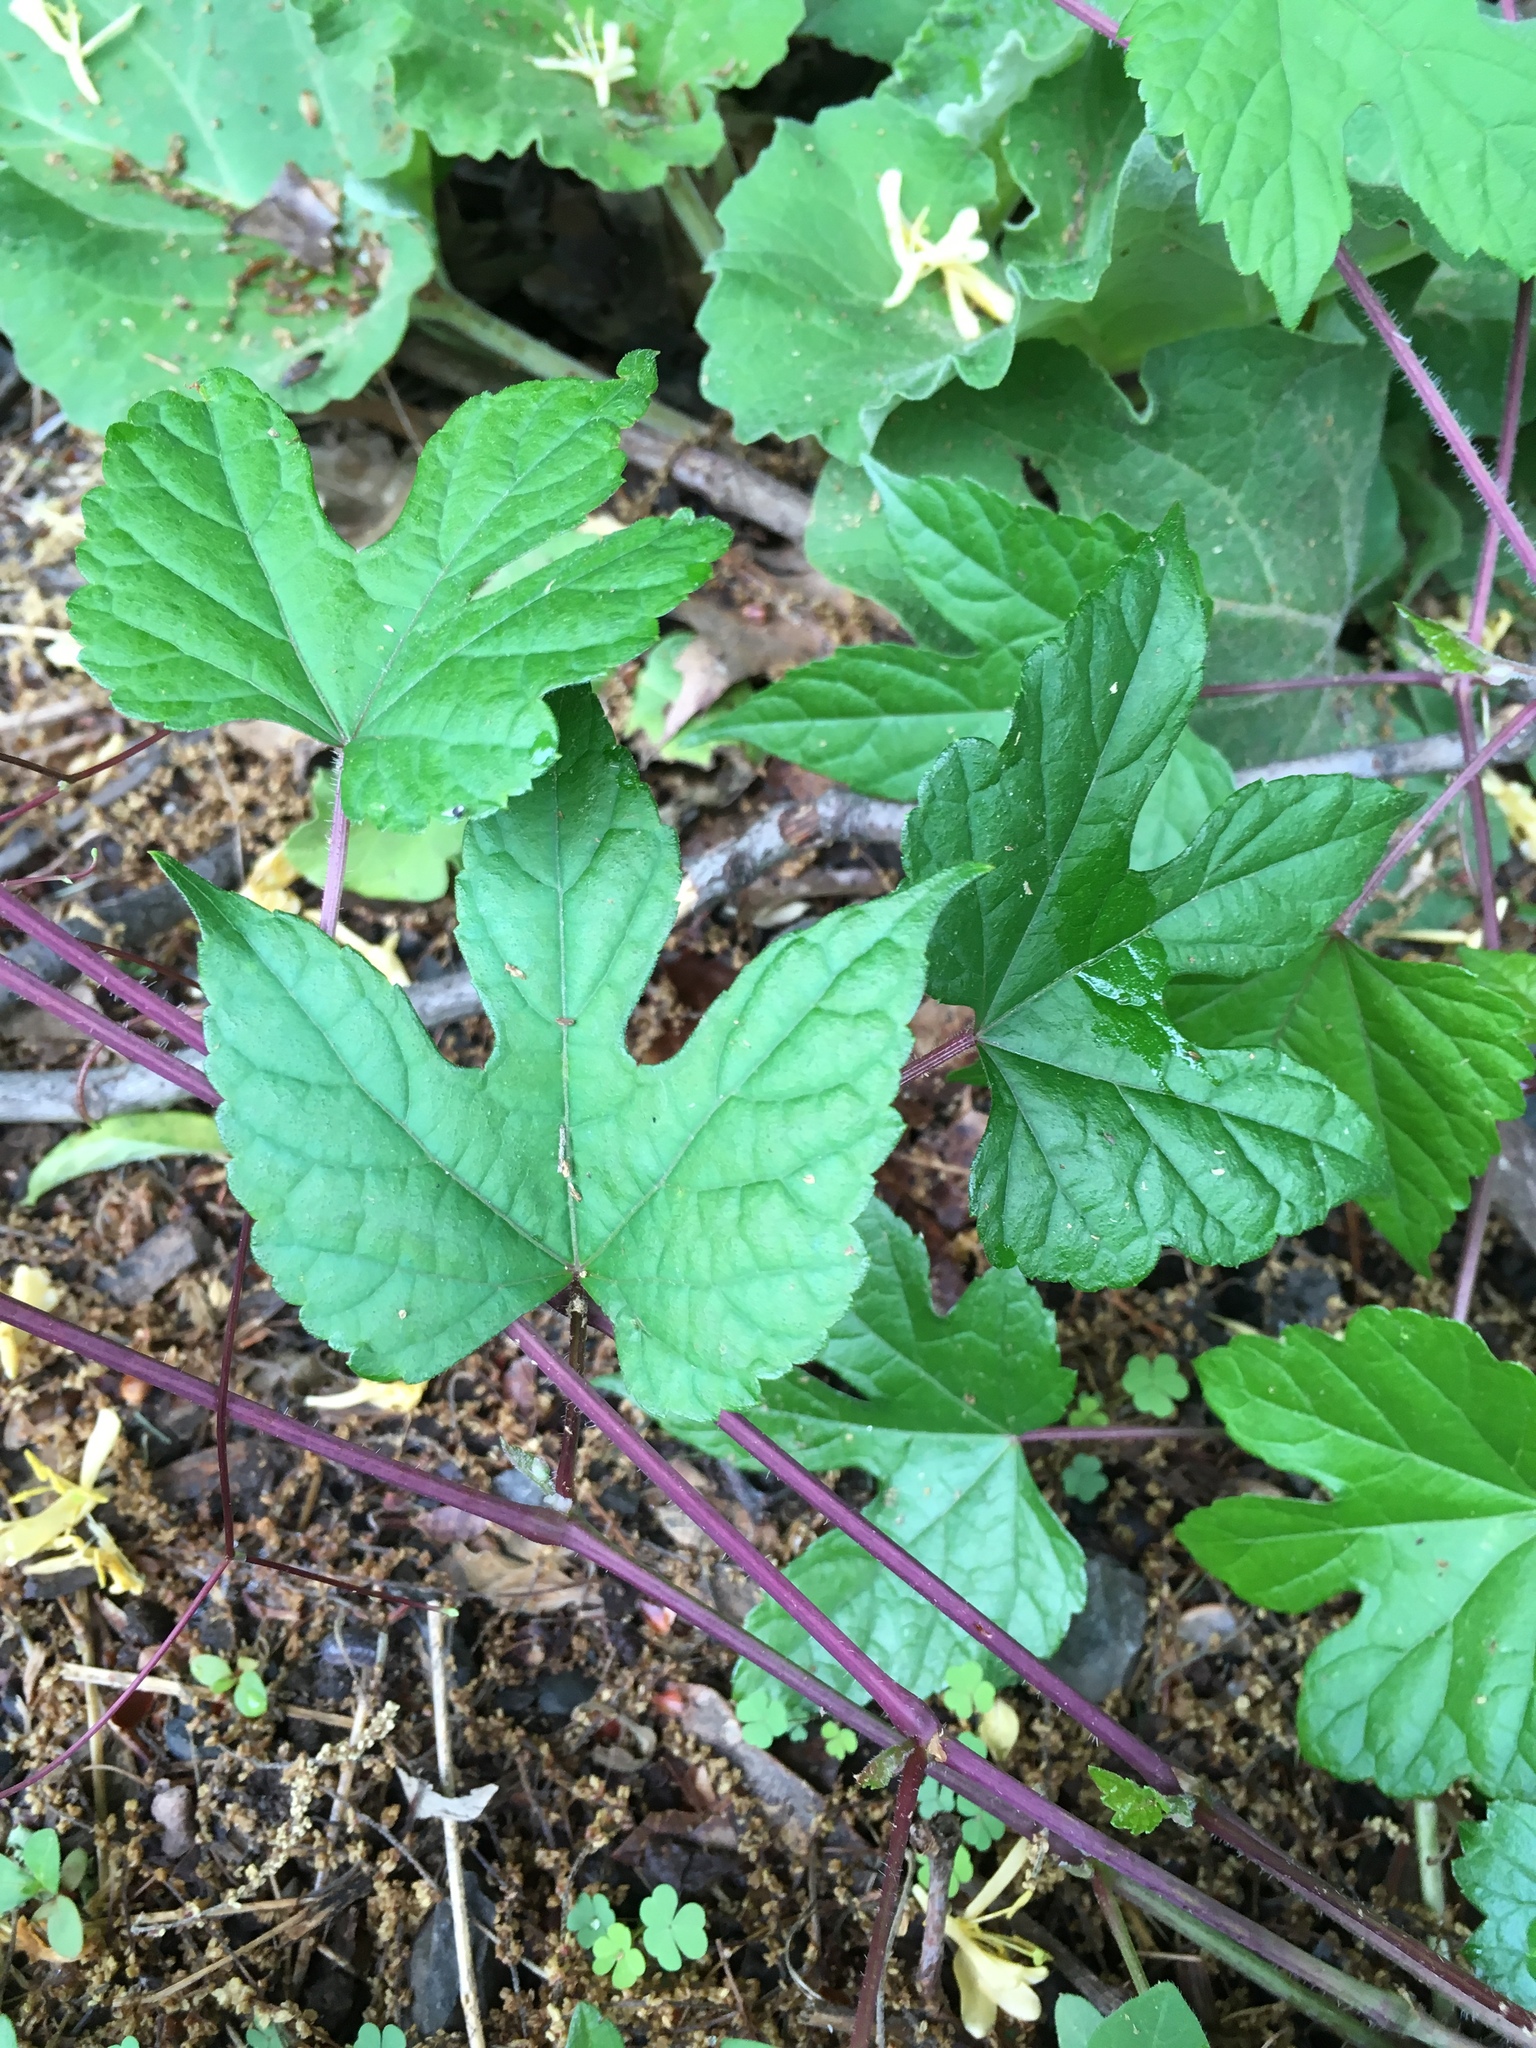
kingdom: Plantae
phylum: Tracheophyta
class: Magnoliopsida
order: Vitales
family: Vitaceae
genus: Ampelopsis
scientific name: Ampelopsis glandulosa
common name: Amur peppervine
